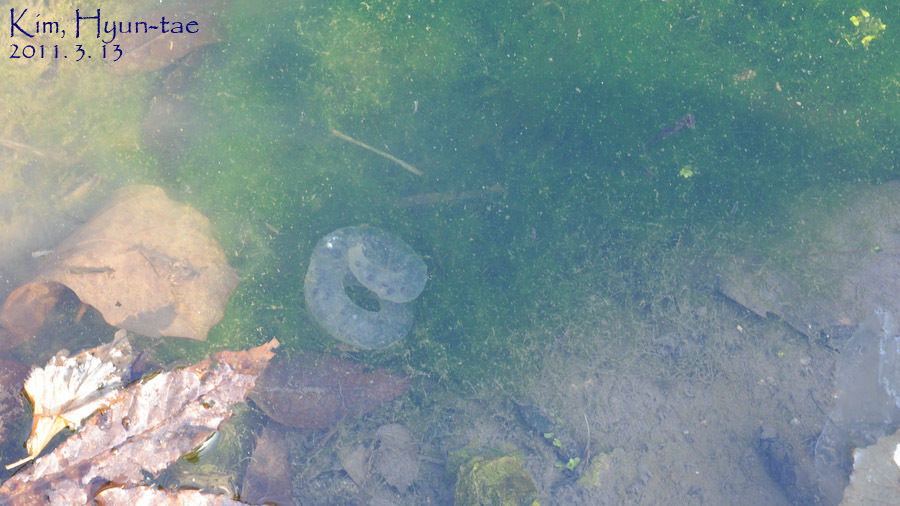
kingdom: Animalia
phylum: Chordata
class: Amphibia
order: Caudata
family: Hynobiidae
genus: Hynobius
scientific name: Hynobius quelpaertensis
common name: Cheju salamander
